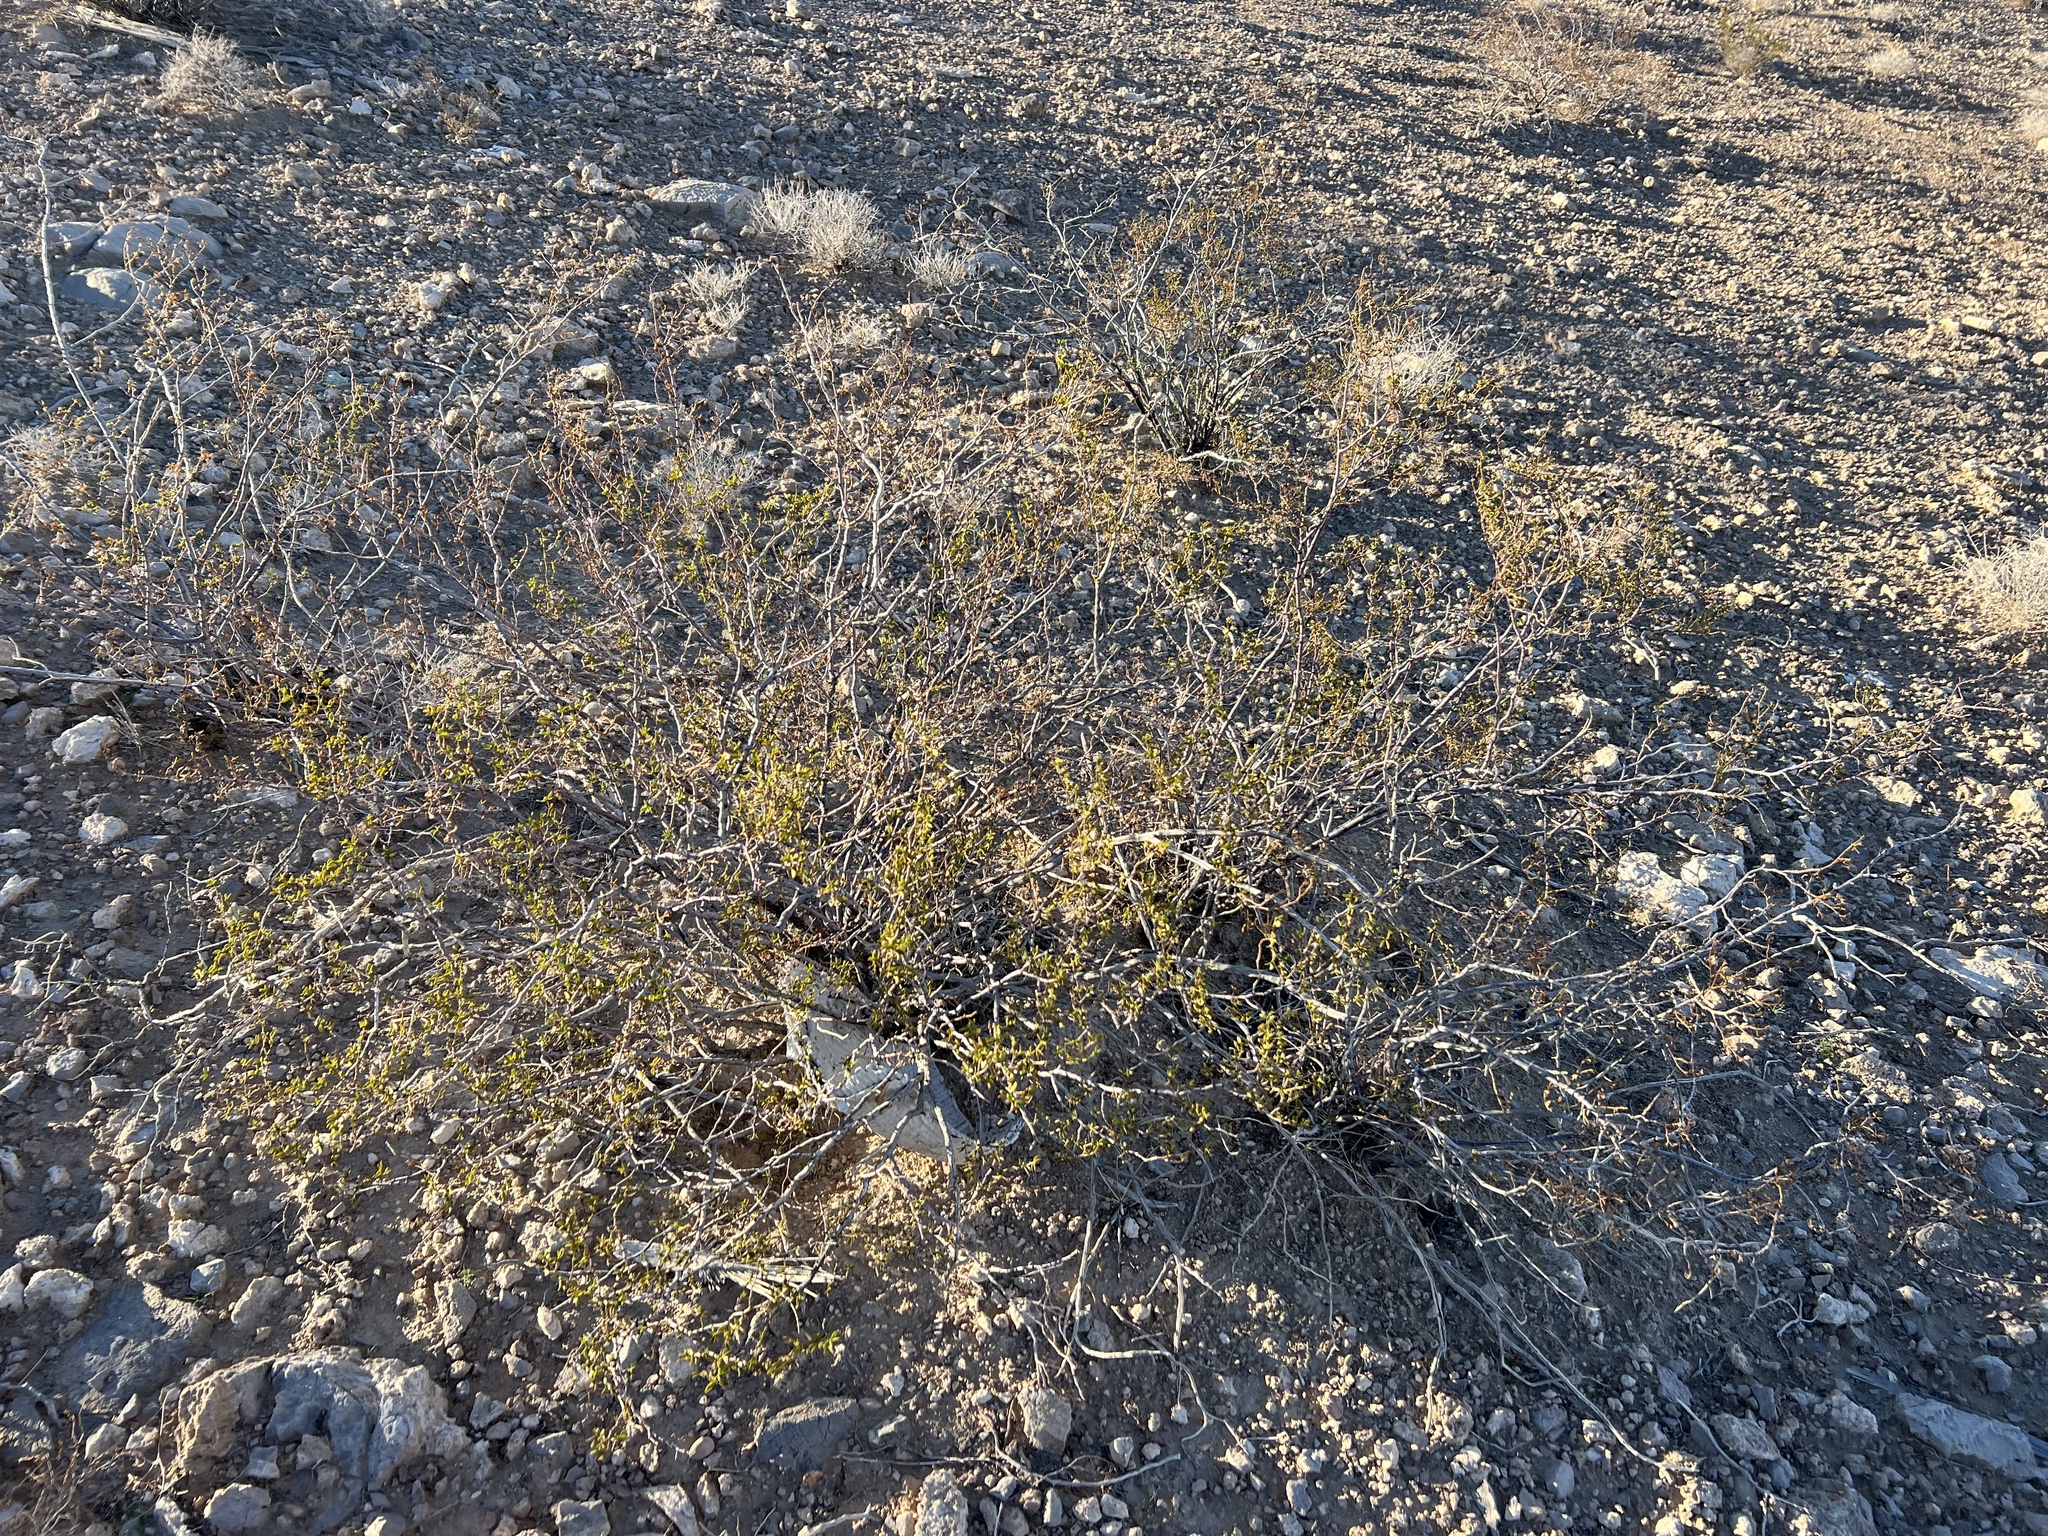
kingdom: Plantae
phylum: Tracheophyta
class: Magnoliopsida
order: Zygophyllales
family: Zygophyllaceae
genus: Larrea
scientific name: Larrea tridentata
